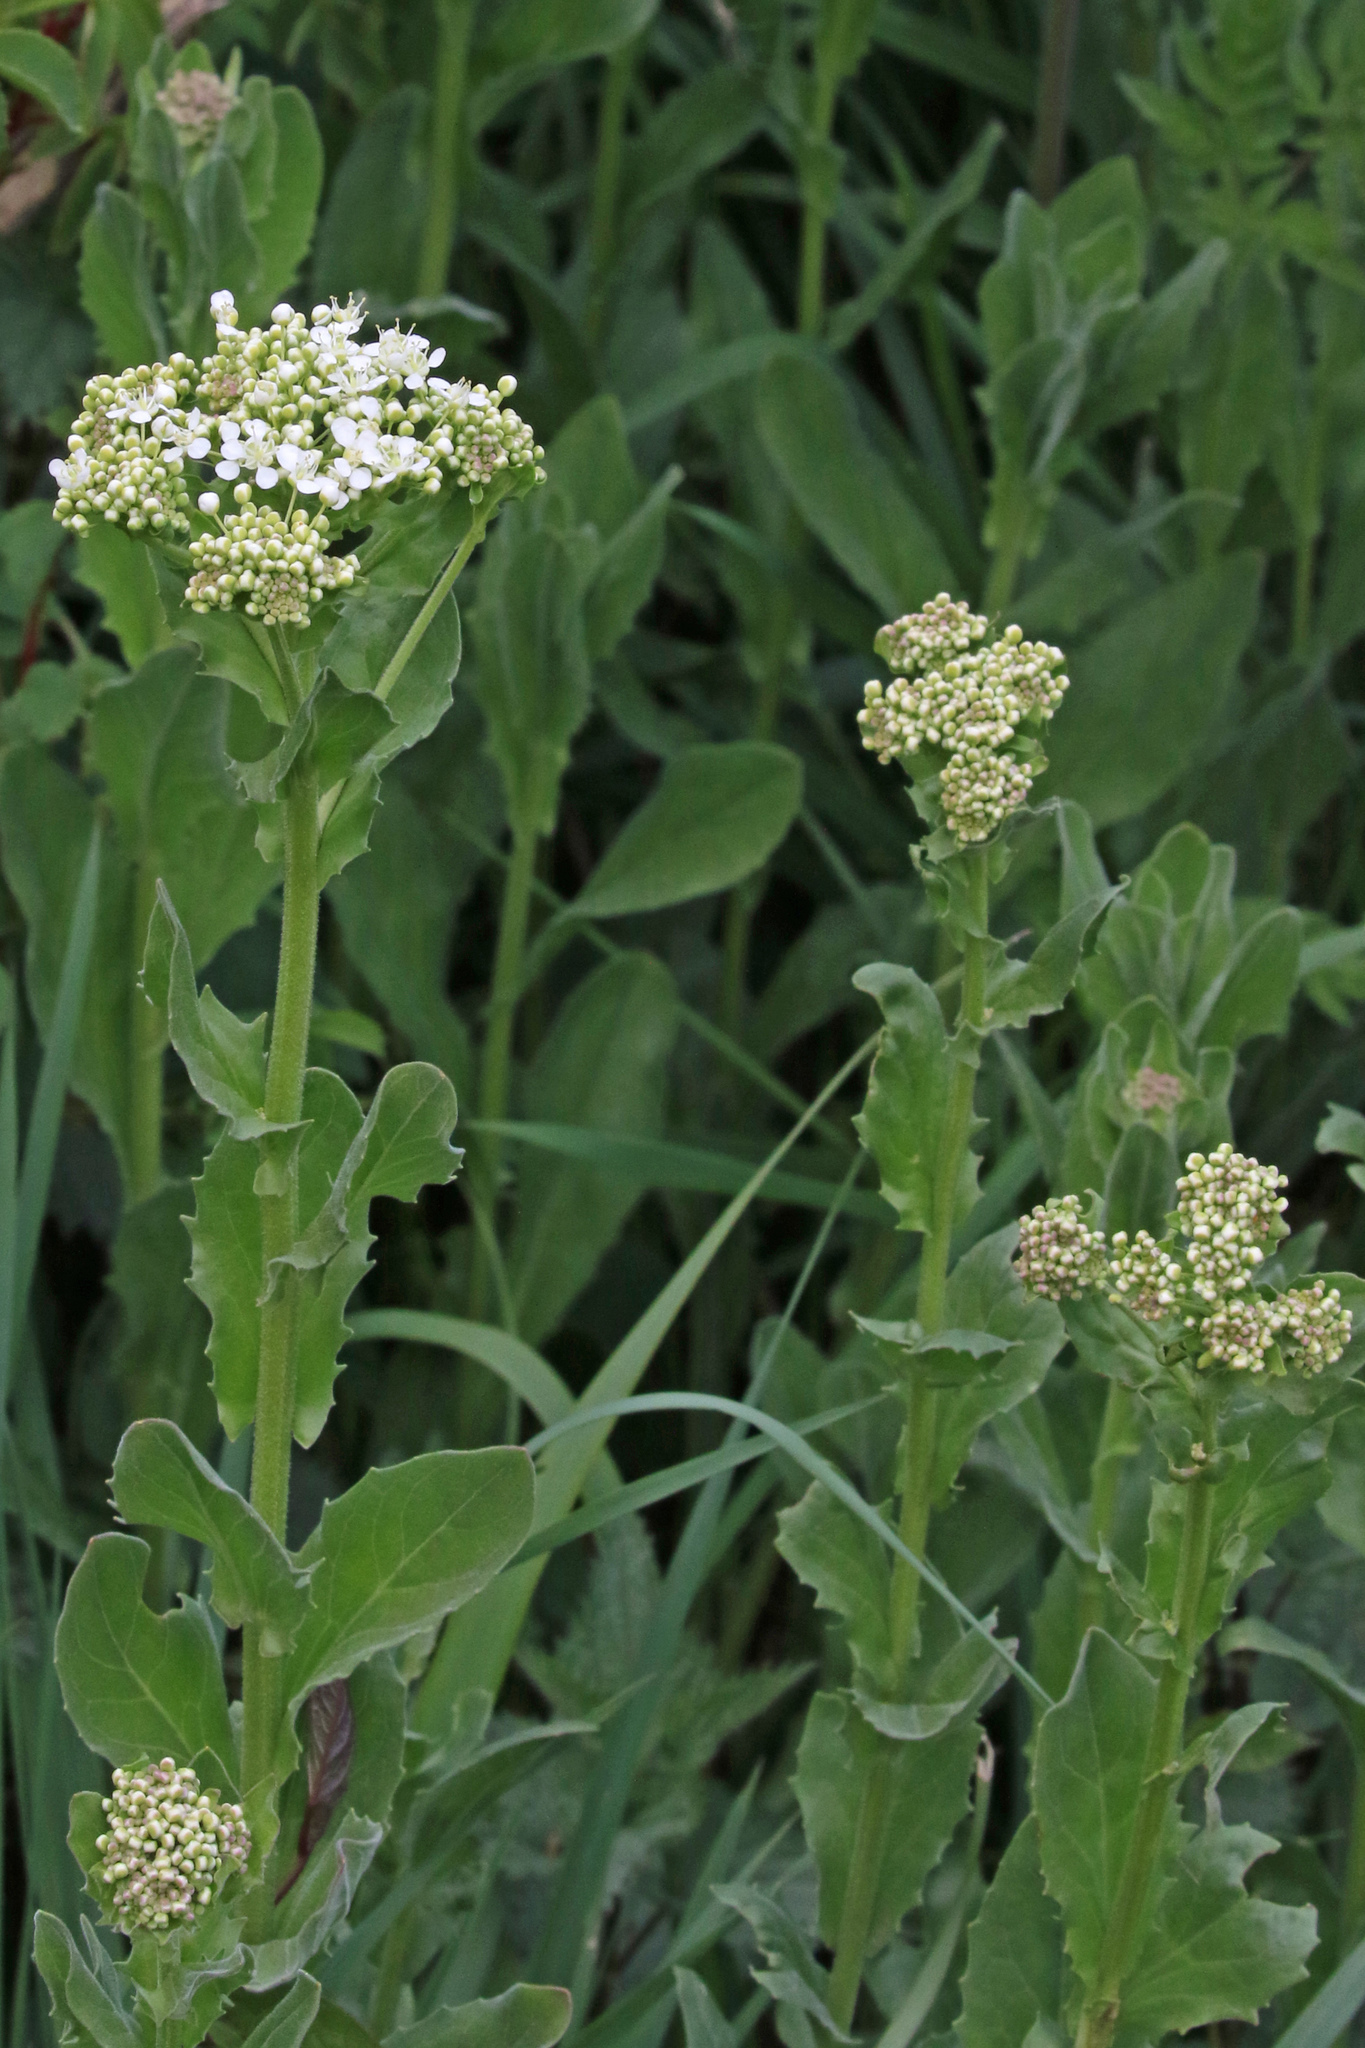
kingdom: Plantae
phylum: Tracheophyta
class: Magnoliopsida
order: Brassicales
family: Brassicaceae
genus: Lepidium
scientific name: Lepidium draba
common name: Hoary cress
